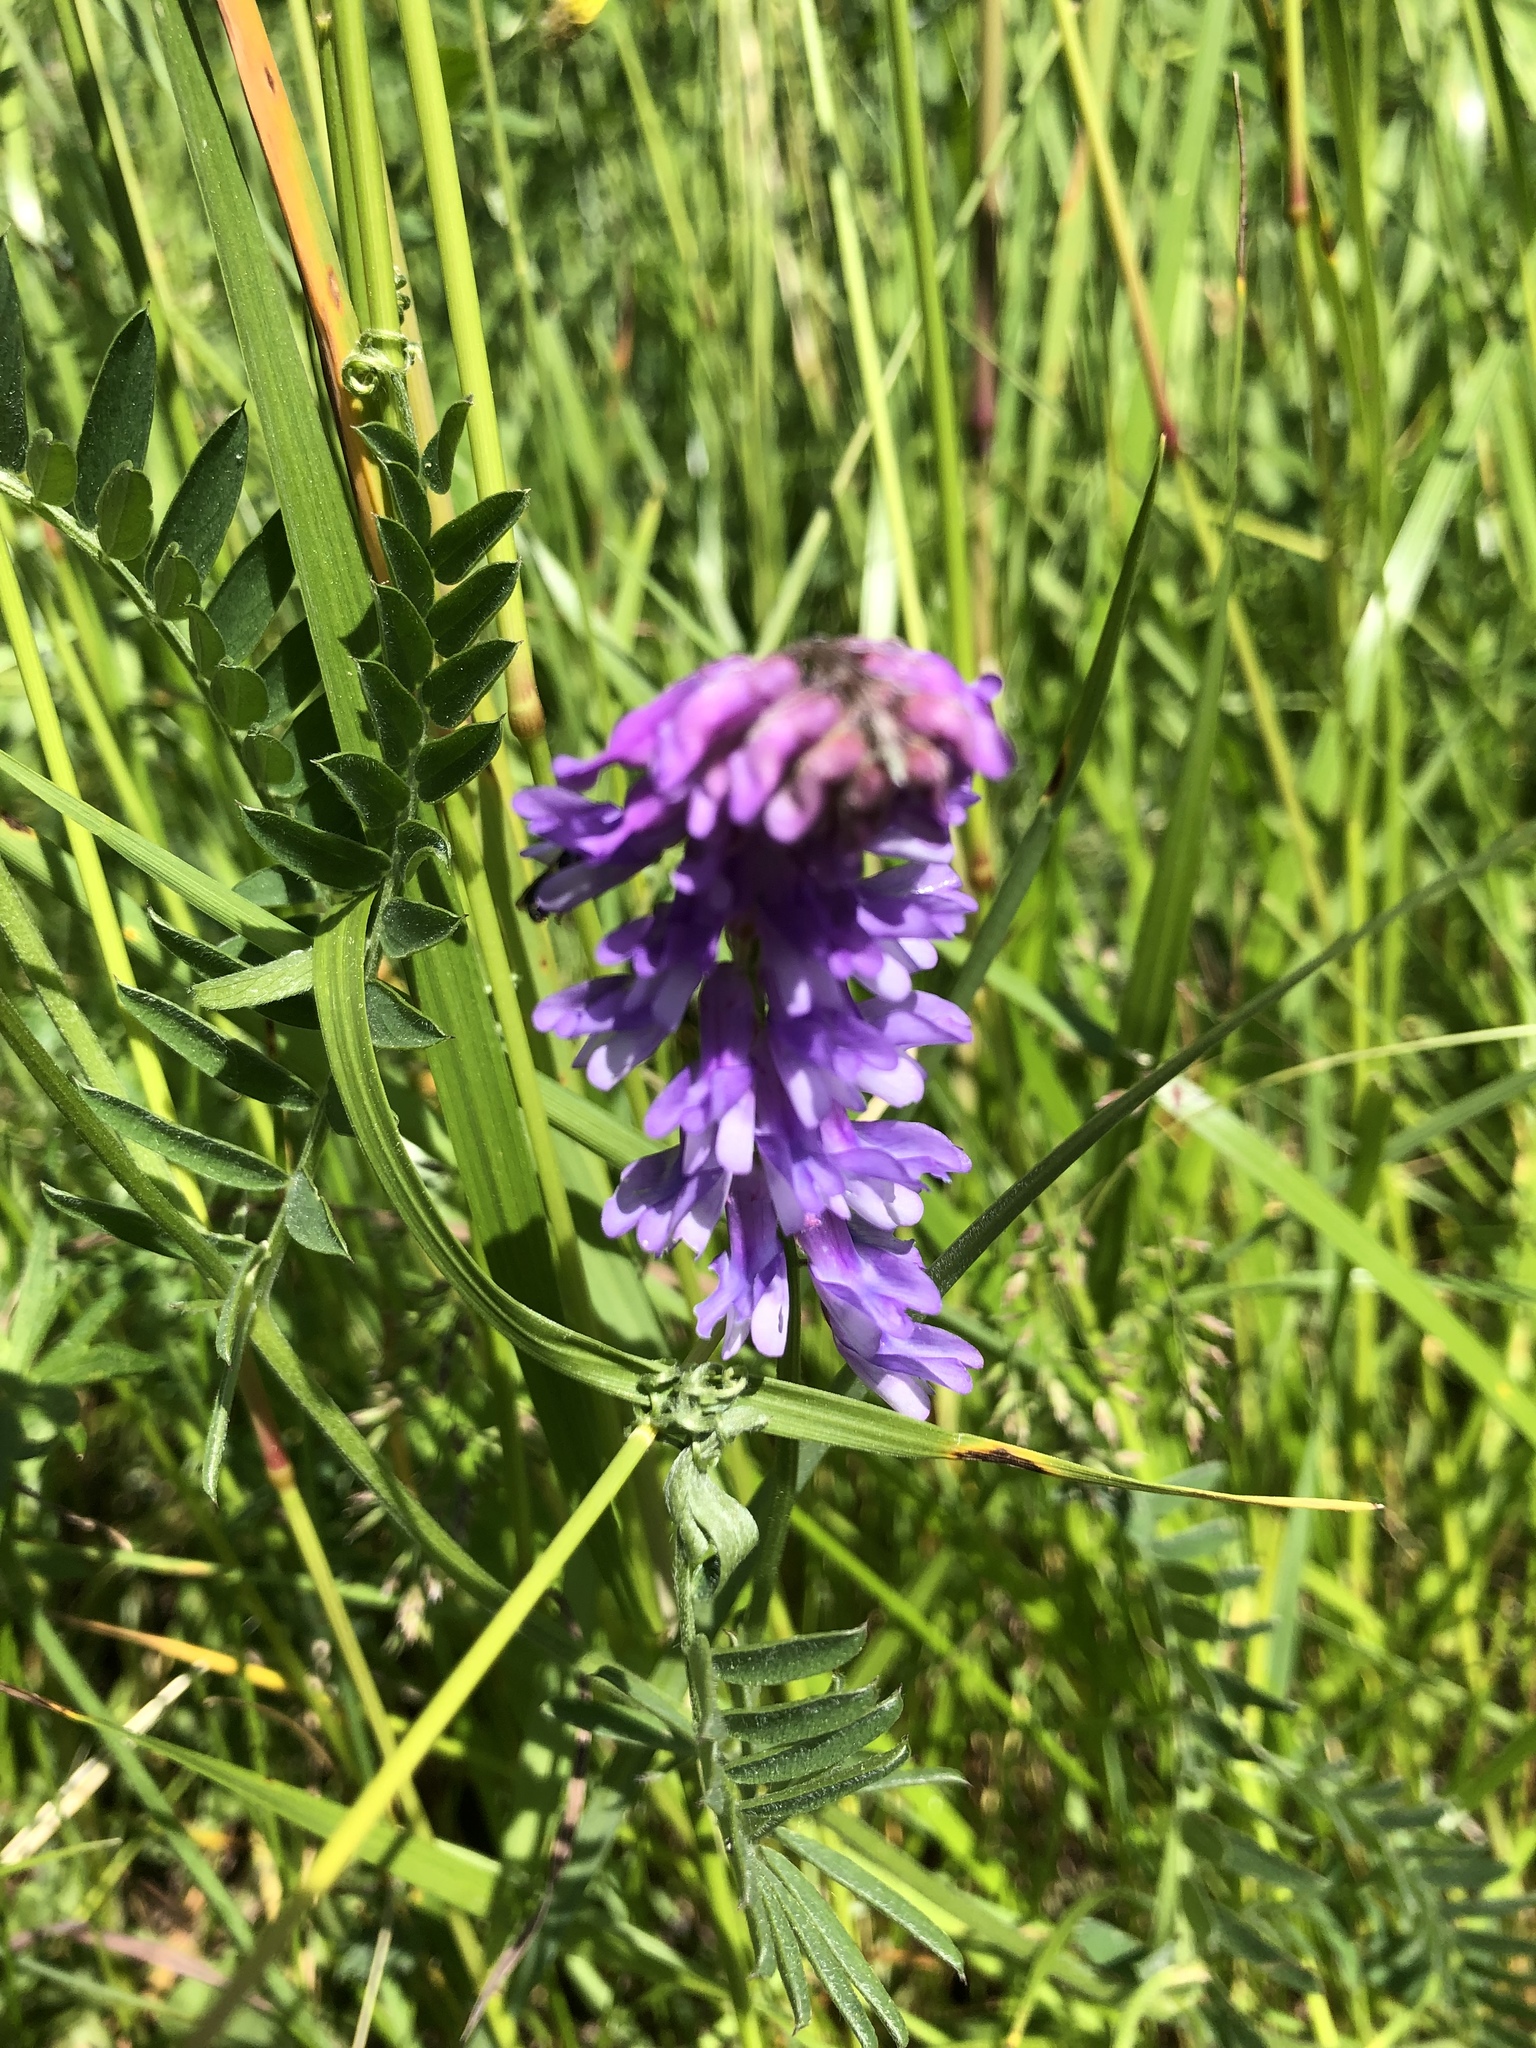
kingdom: Plantae
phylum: Tracheophyta
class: Magnoliopsida
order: Fabales
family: Fabaceae
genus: Vicia
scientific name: Vicia cracca
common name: Bird vetch
